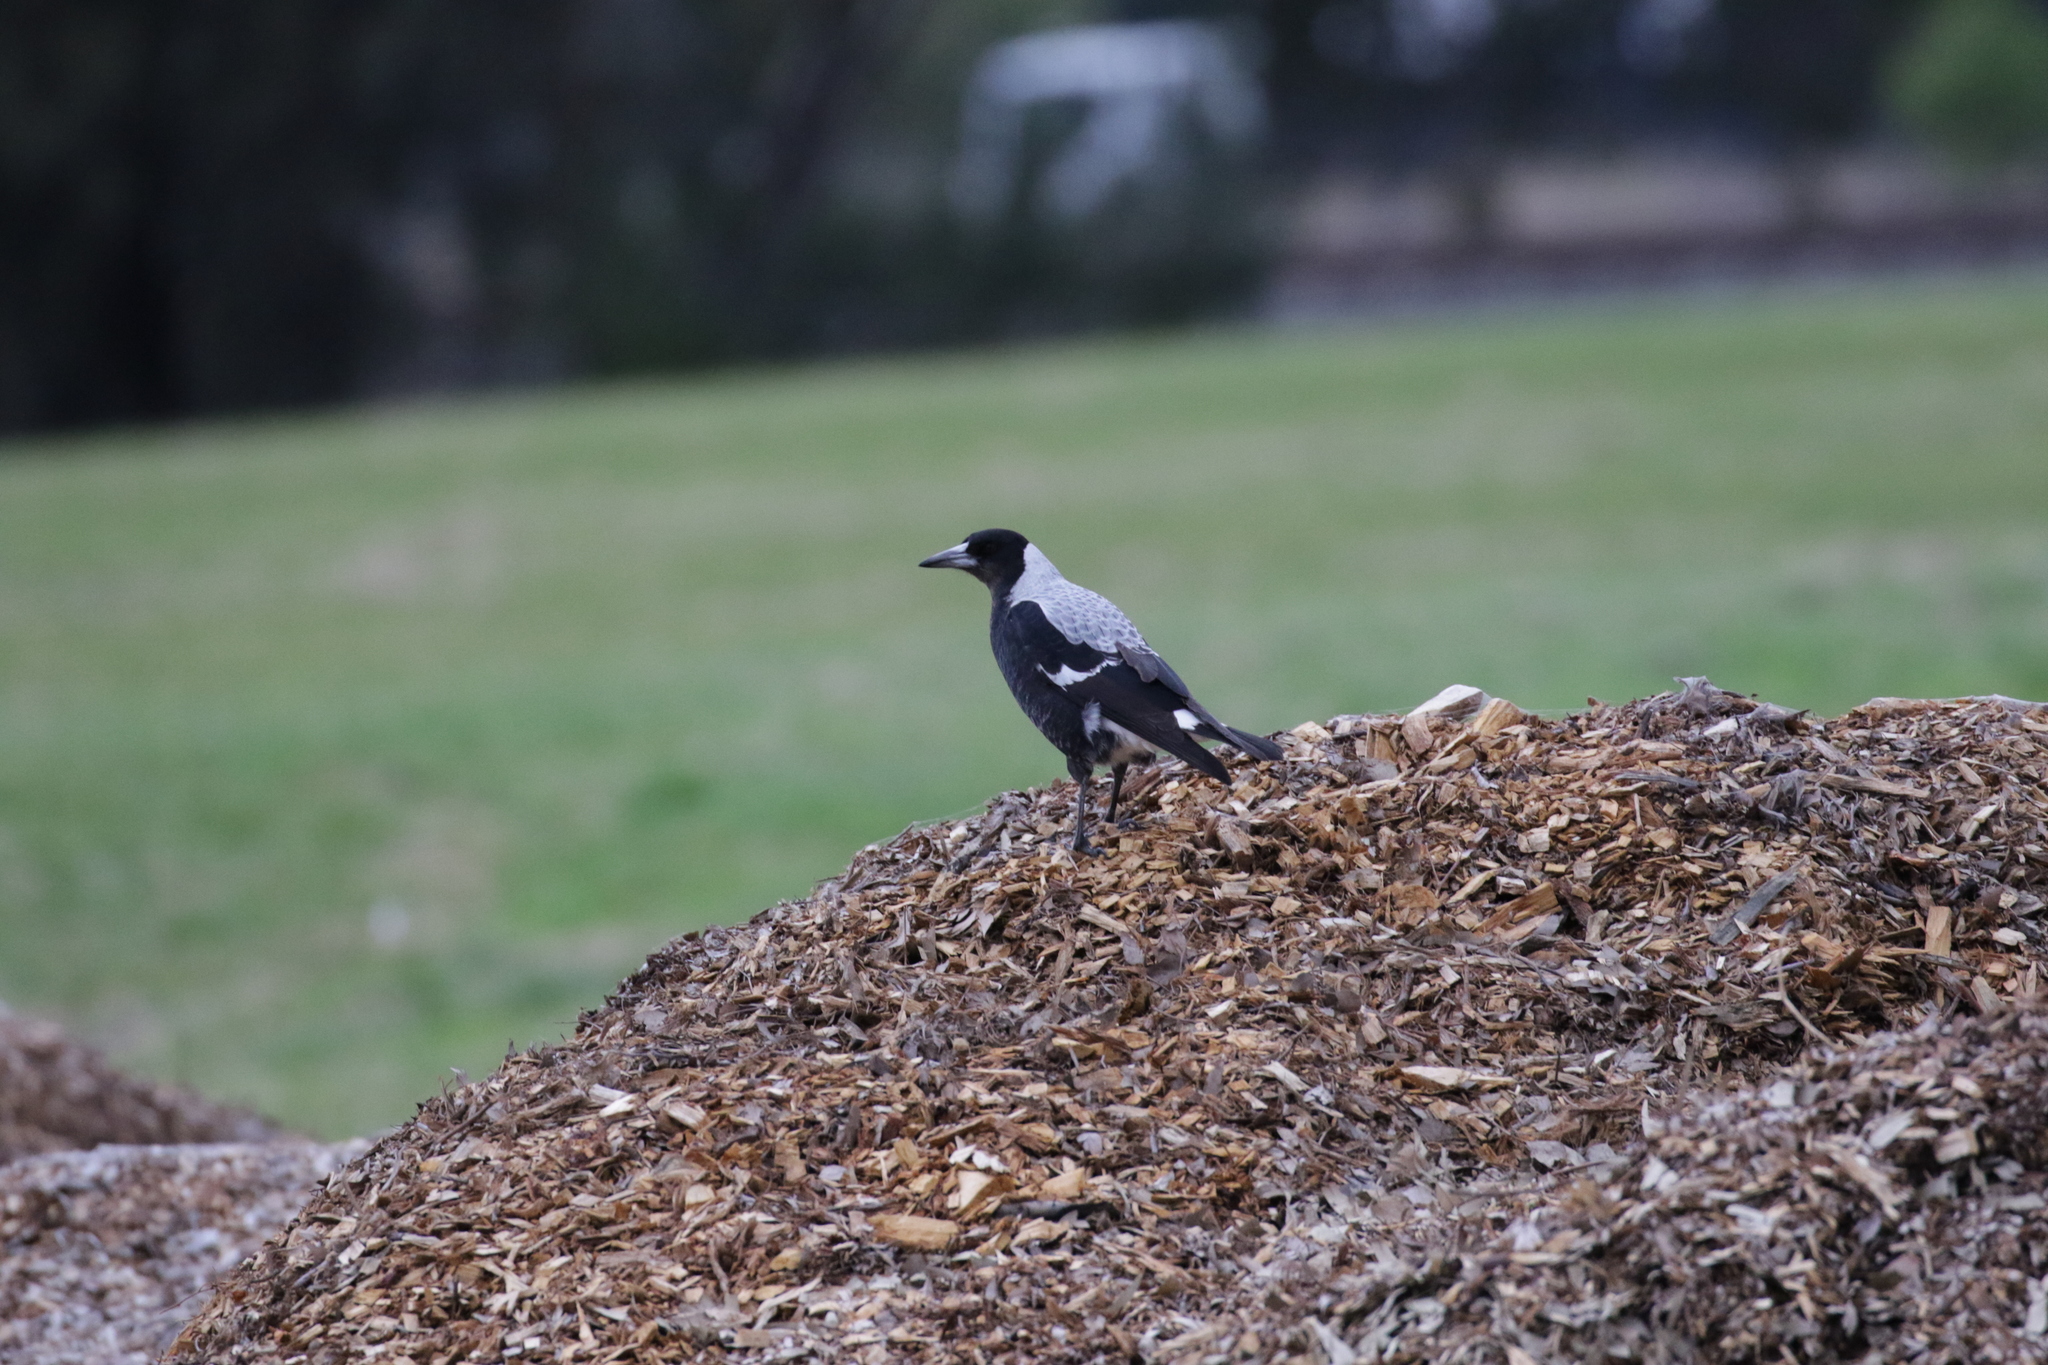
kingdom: Animalia
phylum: Chordata
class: Aves
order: Passeriformes
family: Cracticidae
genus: Gymnorhina
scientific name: Gymnorhina tibicen
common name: Australian magpie
